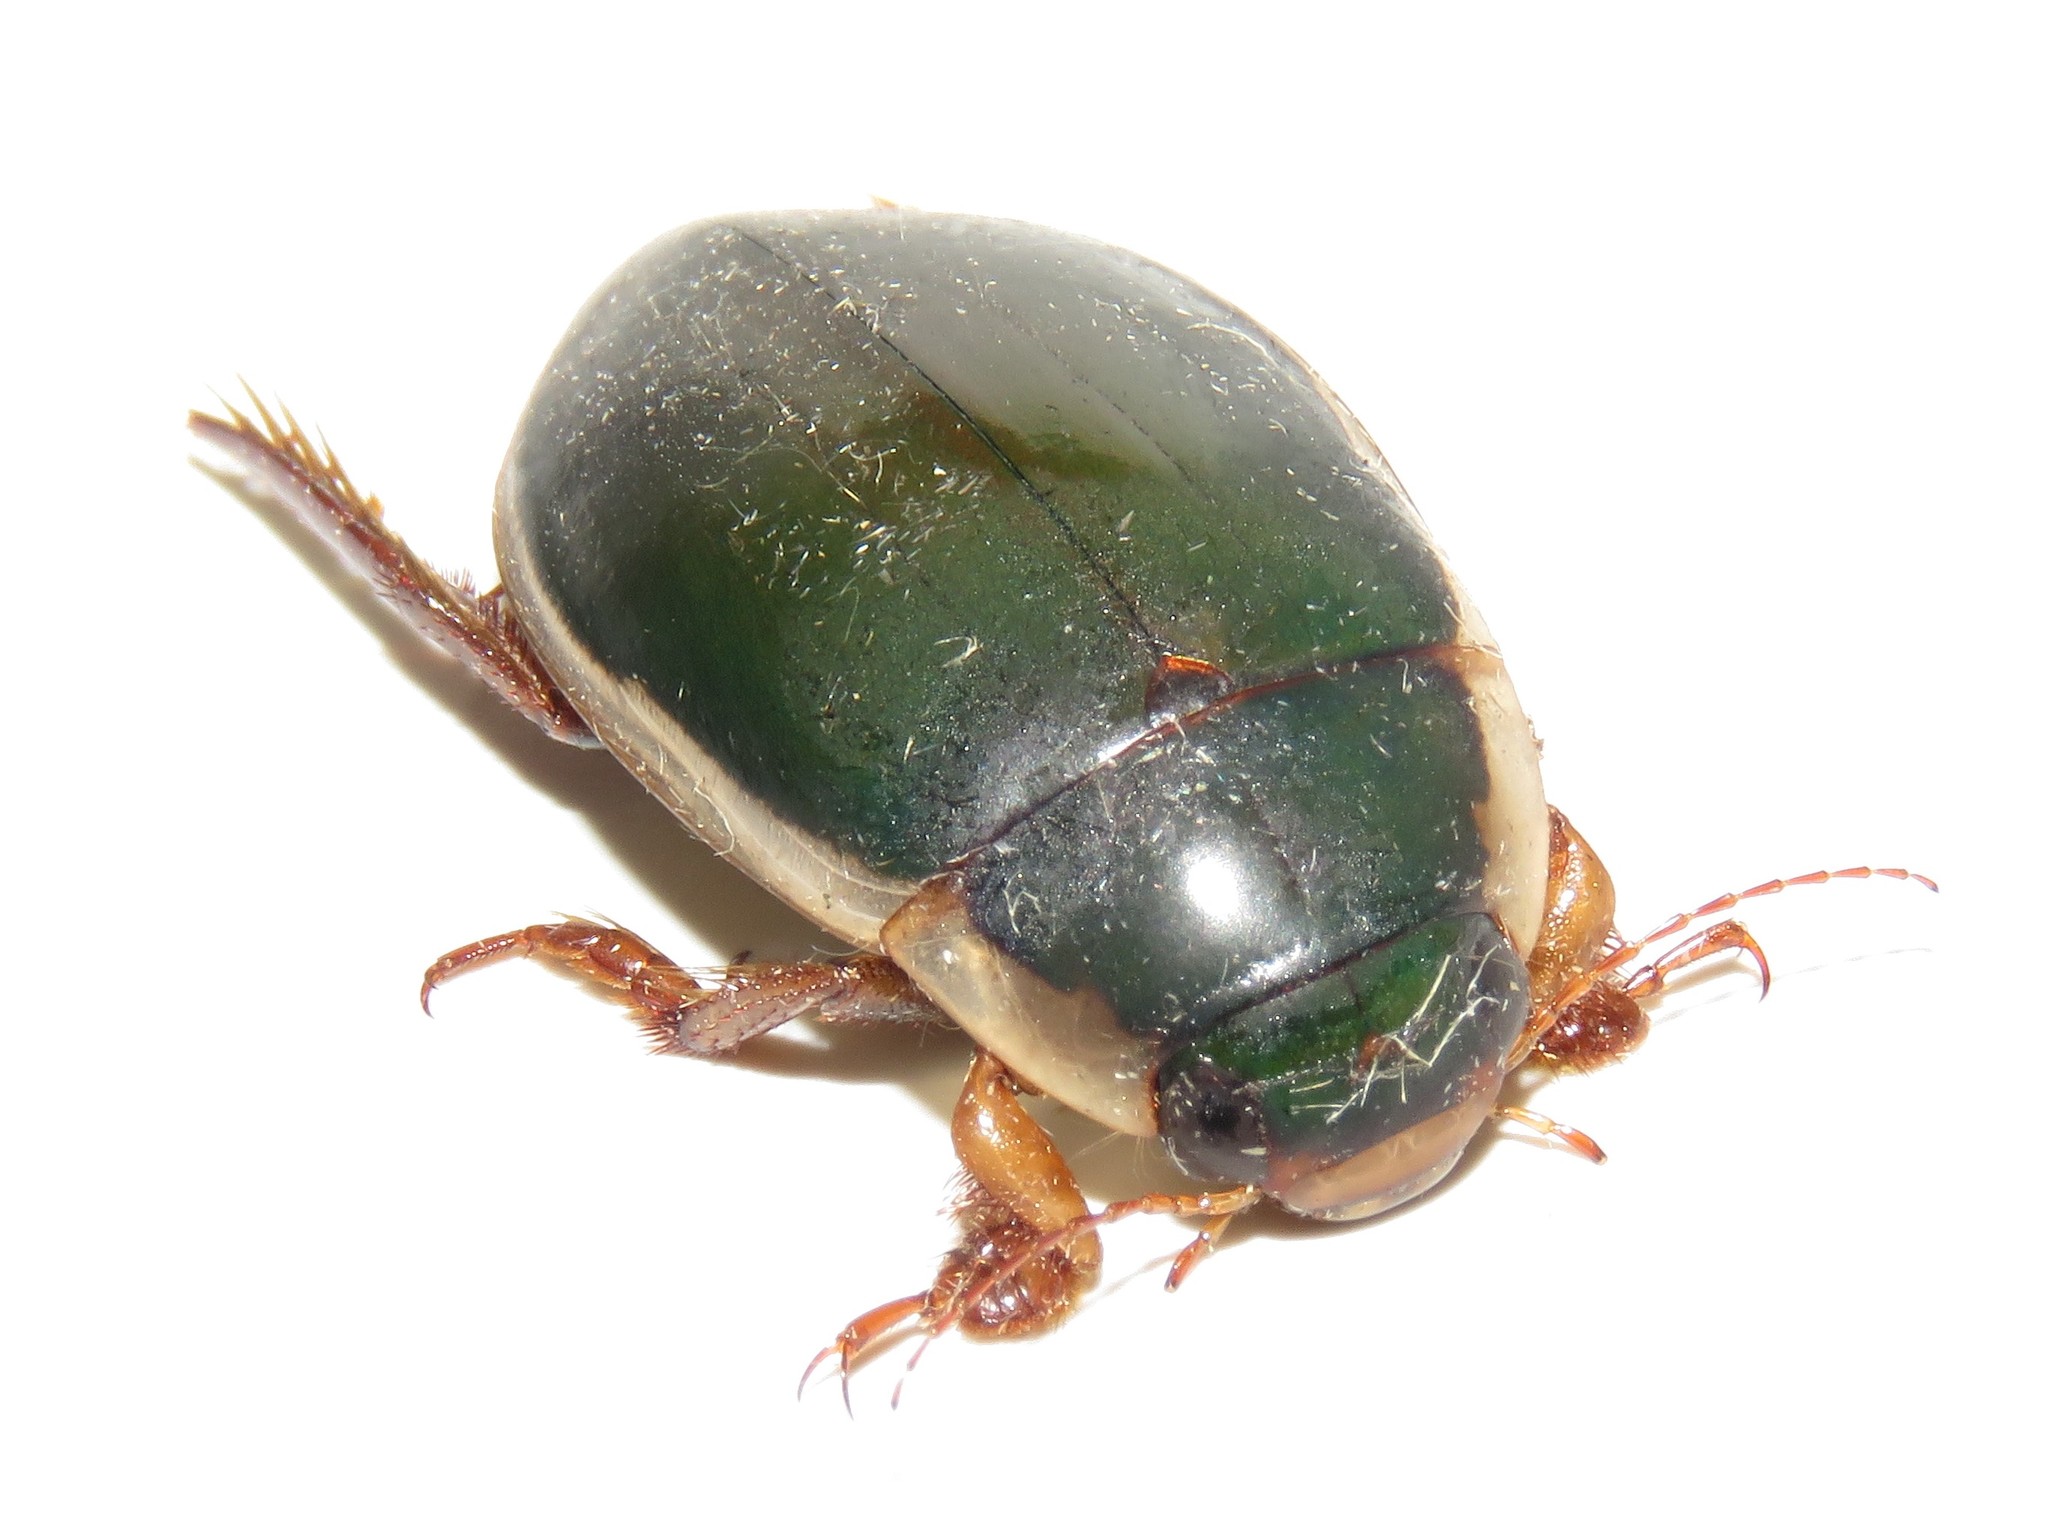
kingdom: Animalia
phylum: Arthropoda
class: Insecta
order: Coleoptera
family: Dytiscidae
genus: Dytiscus
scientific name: Dytiscus fasciventris
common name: Understriped diving beetle
